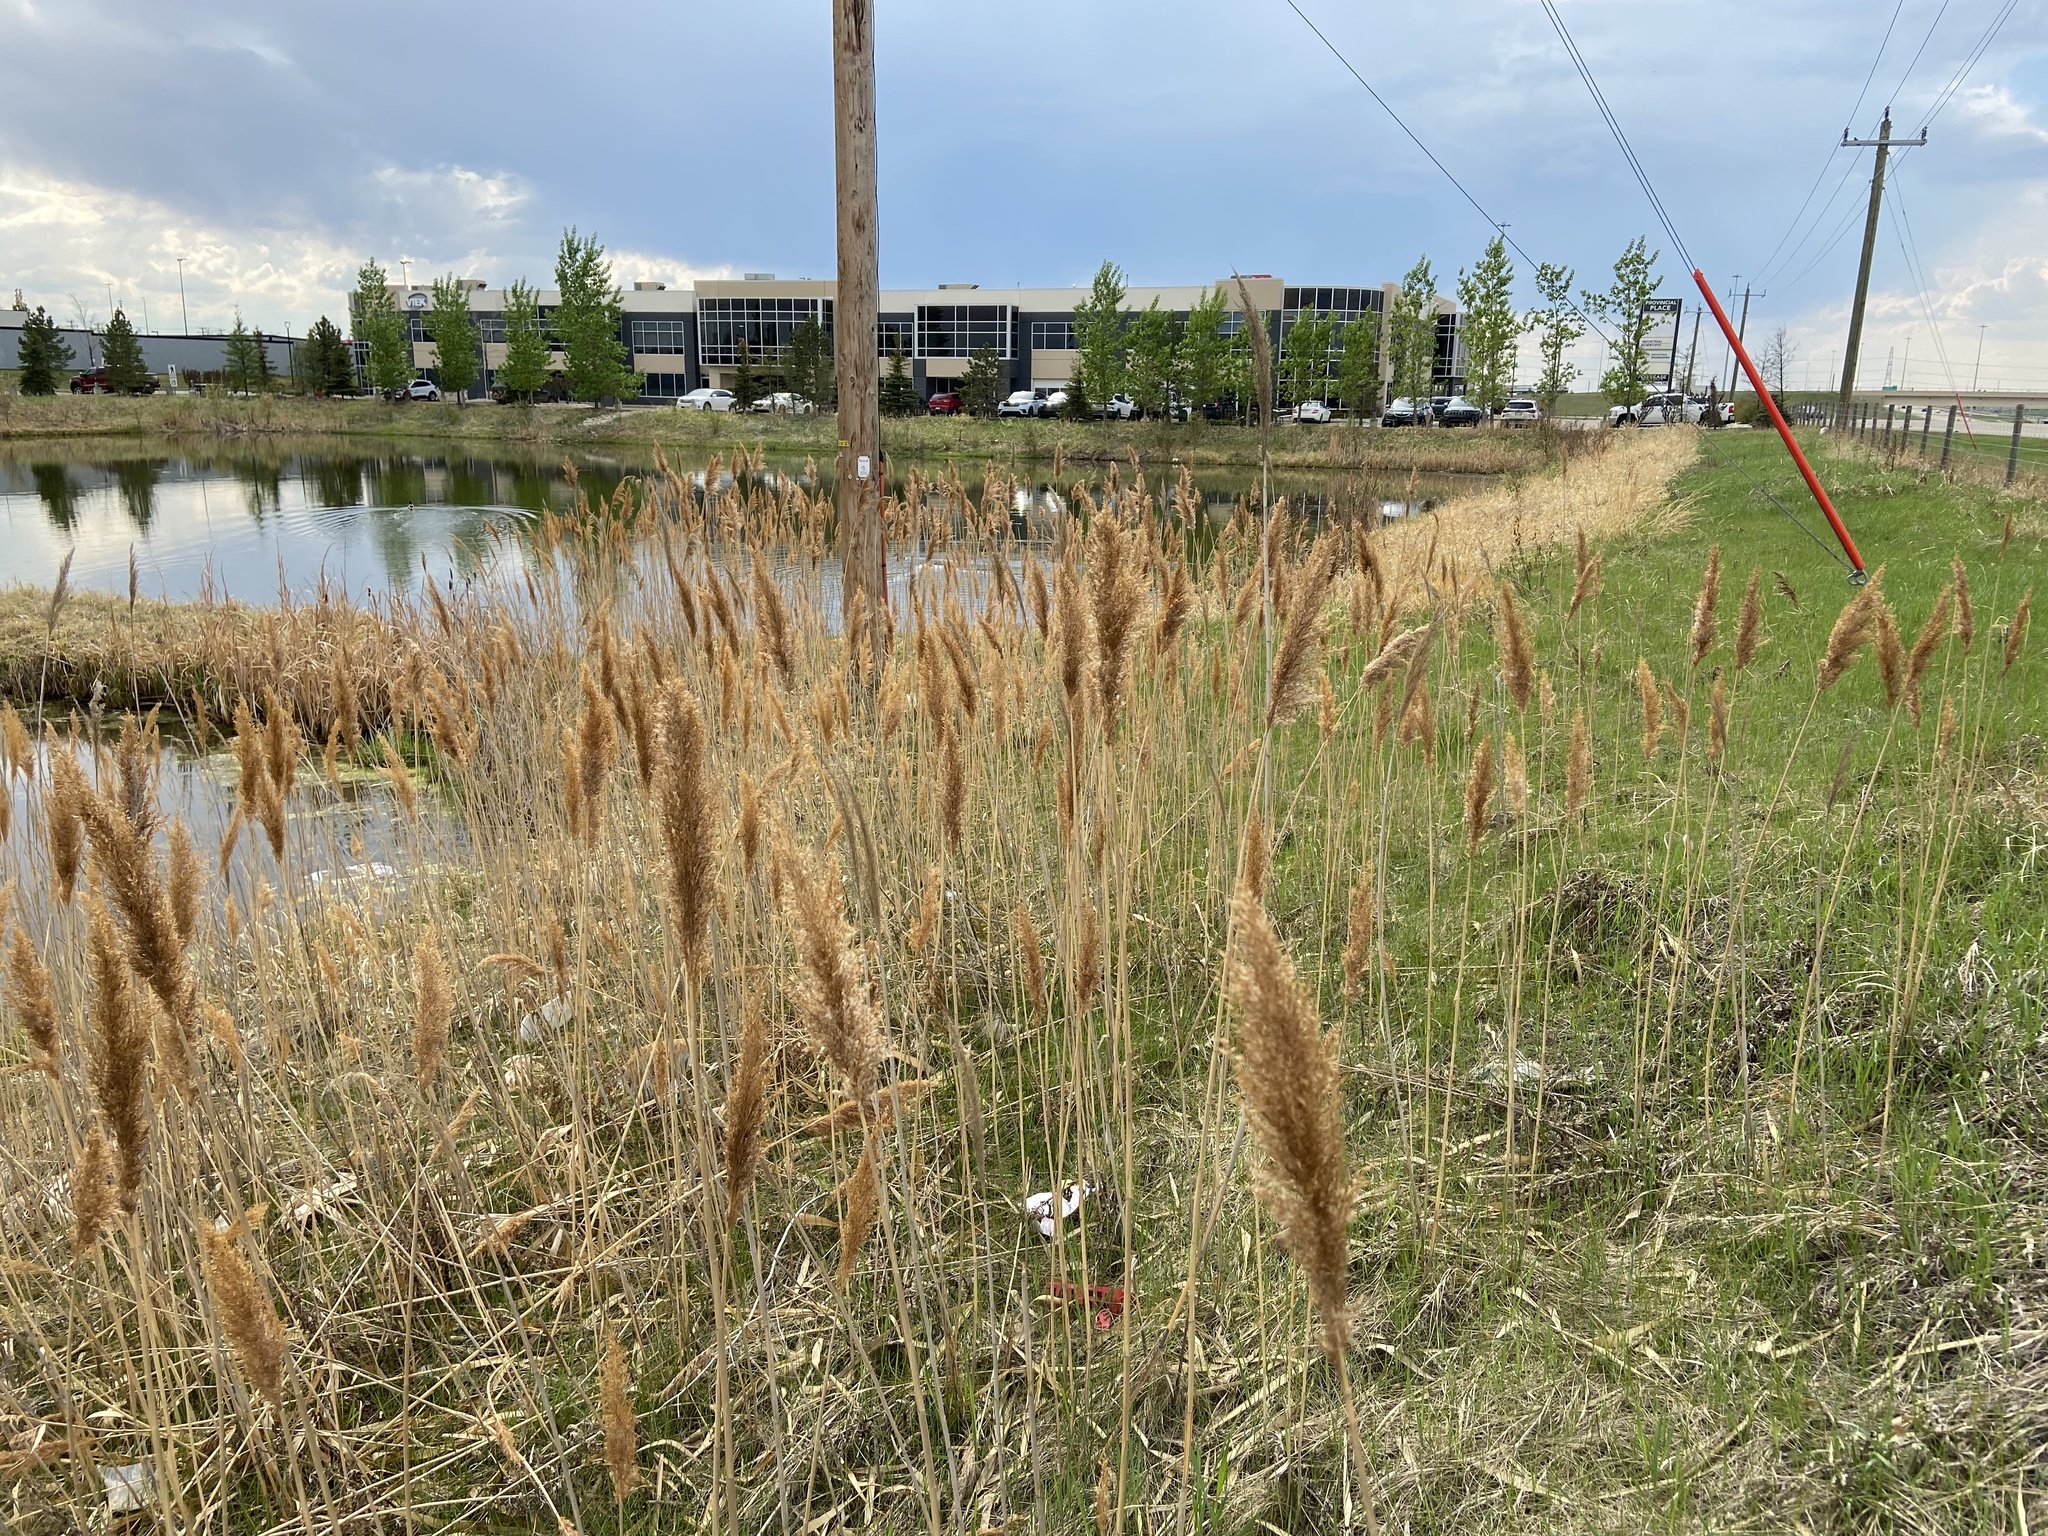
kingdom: Plantae
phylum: Tracheophyta
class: Liliopsida
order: Poales
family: Poaceae
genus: Phragmites
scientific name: Phragmites australis
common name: Common reed
